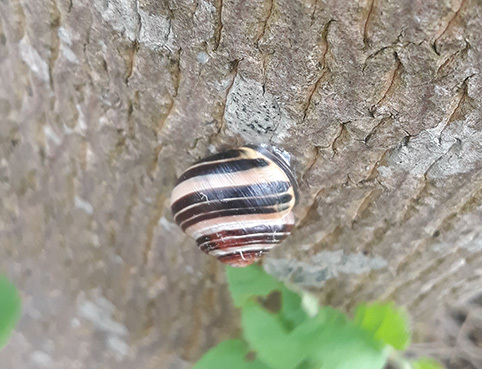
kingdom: Animalia
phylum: Mollusca
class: Gastropoda
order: Stylommatophora
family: Helicidae
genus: Cepaea
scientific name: Cepaea nemoralis
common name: Grovesnail
